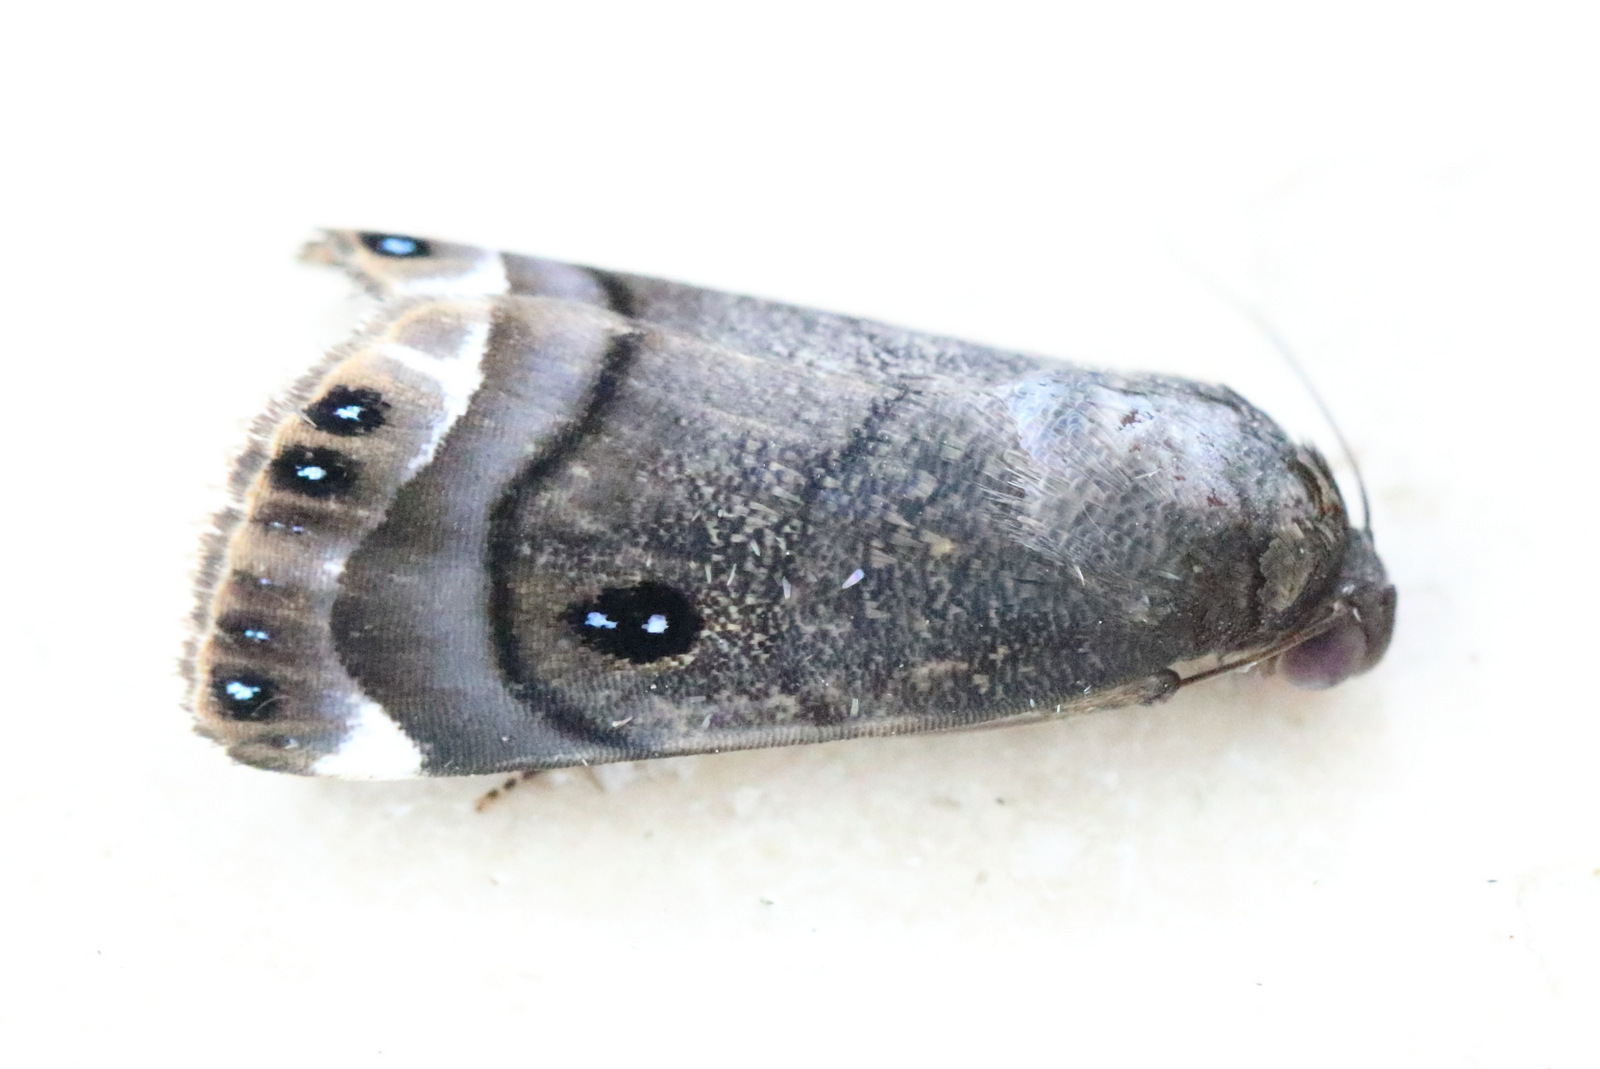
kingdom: Animalia
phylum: Arthropoda
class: Insecta
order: Lepidoptera
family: Nolidae
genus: Armactica
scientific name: Armactica columbina
